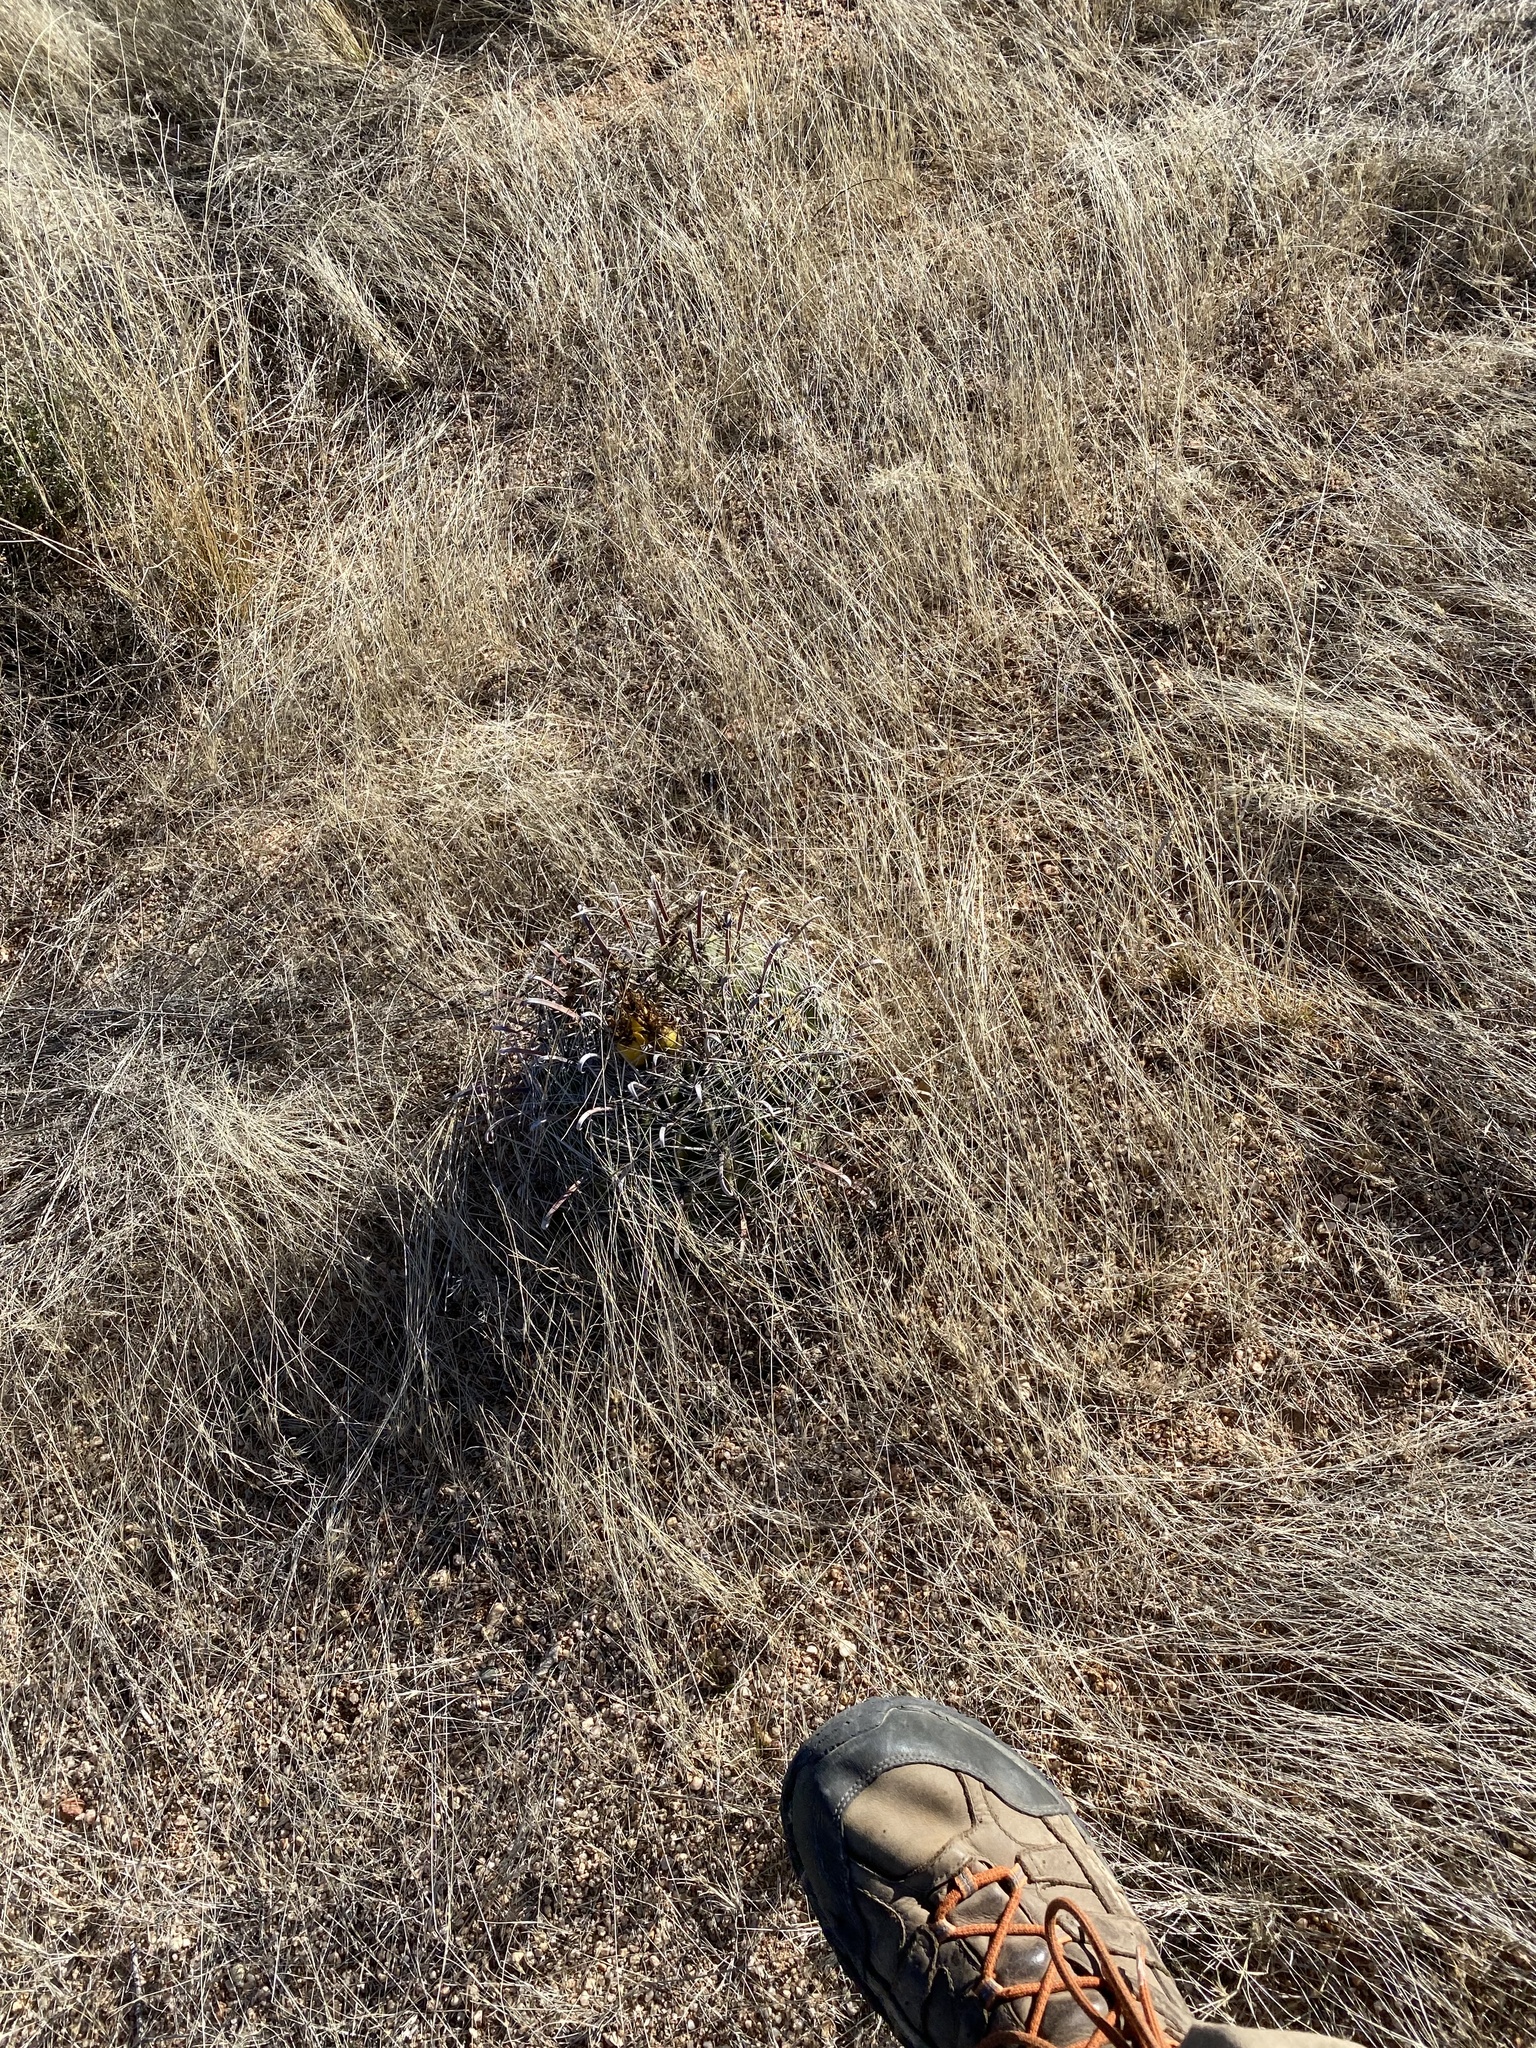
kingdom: Plantae
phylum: Tracheophyta
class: Magnoliopsida
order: Caryophyllales
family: Cactaceae
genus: Ferocactus
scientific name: Ferocactus wislizeni
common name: Candy barrel cactus
